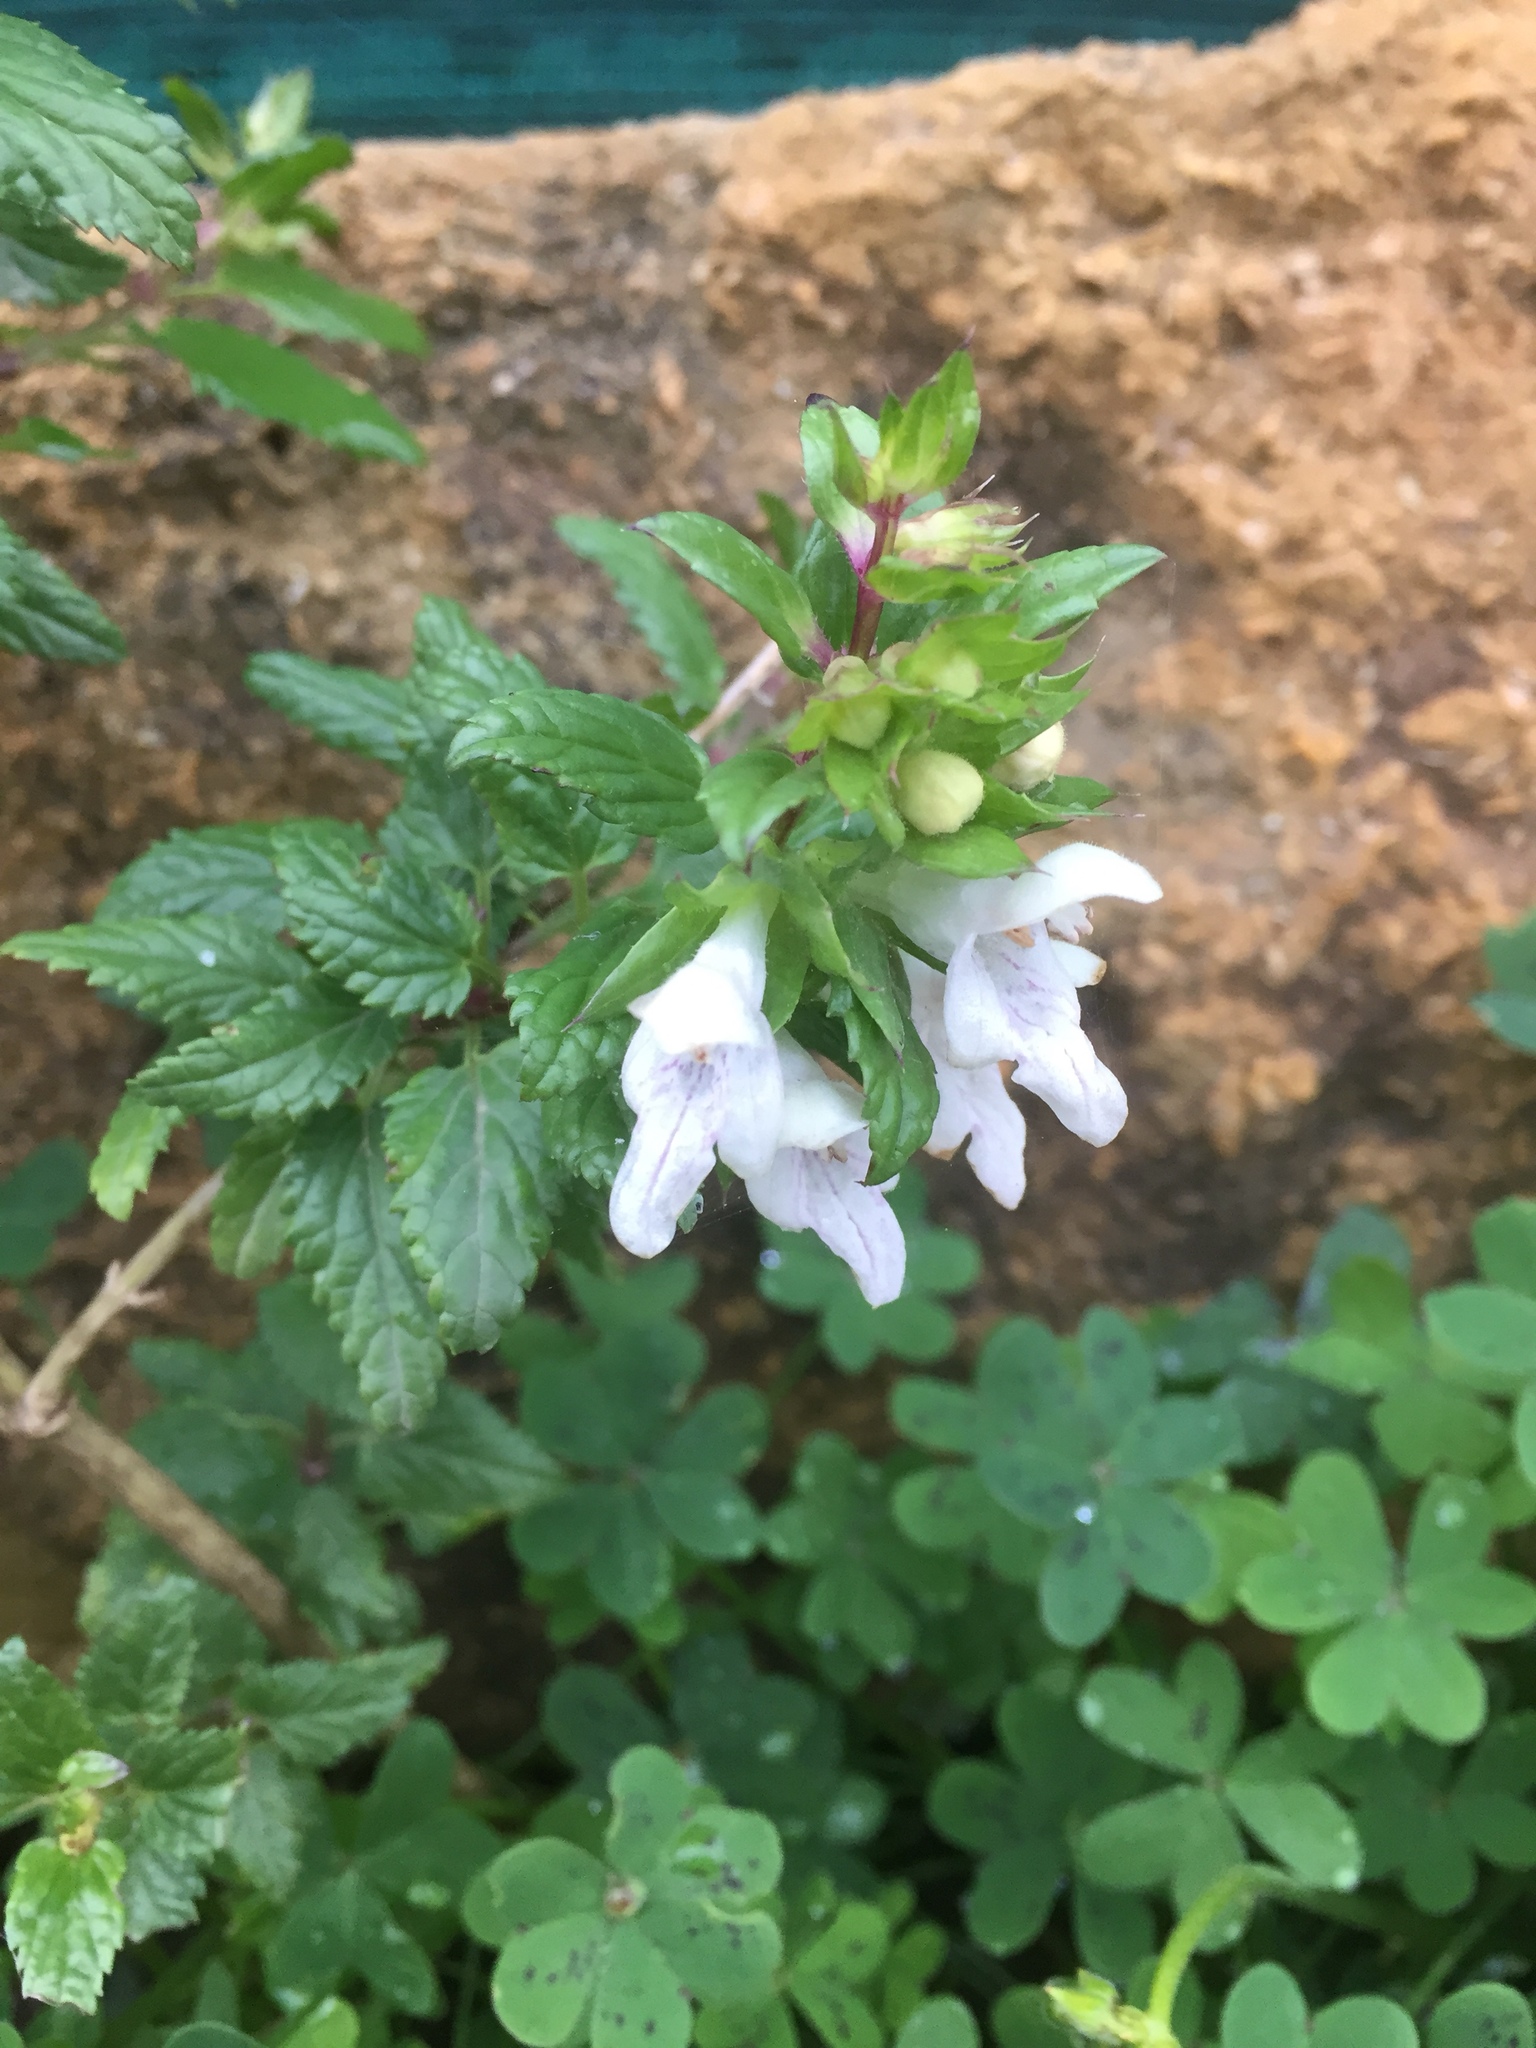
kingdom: Plantae
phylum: Tracheophyta
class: Magnoliopsida
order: Lamiales
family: Lamiaceae
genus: Prasium
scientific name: Prasium majus
